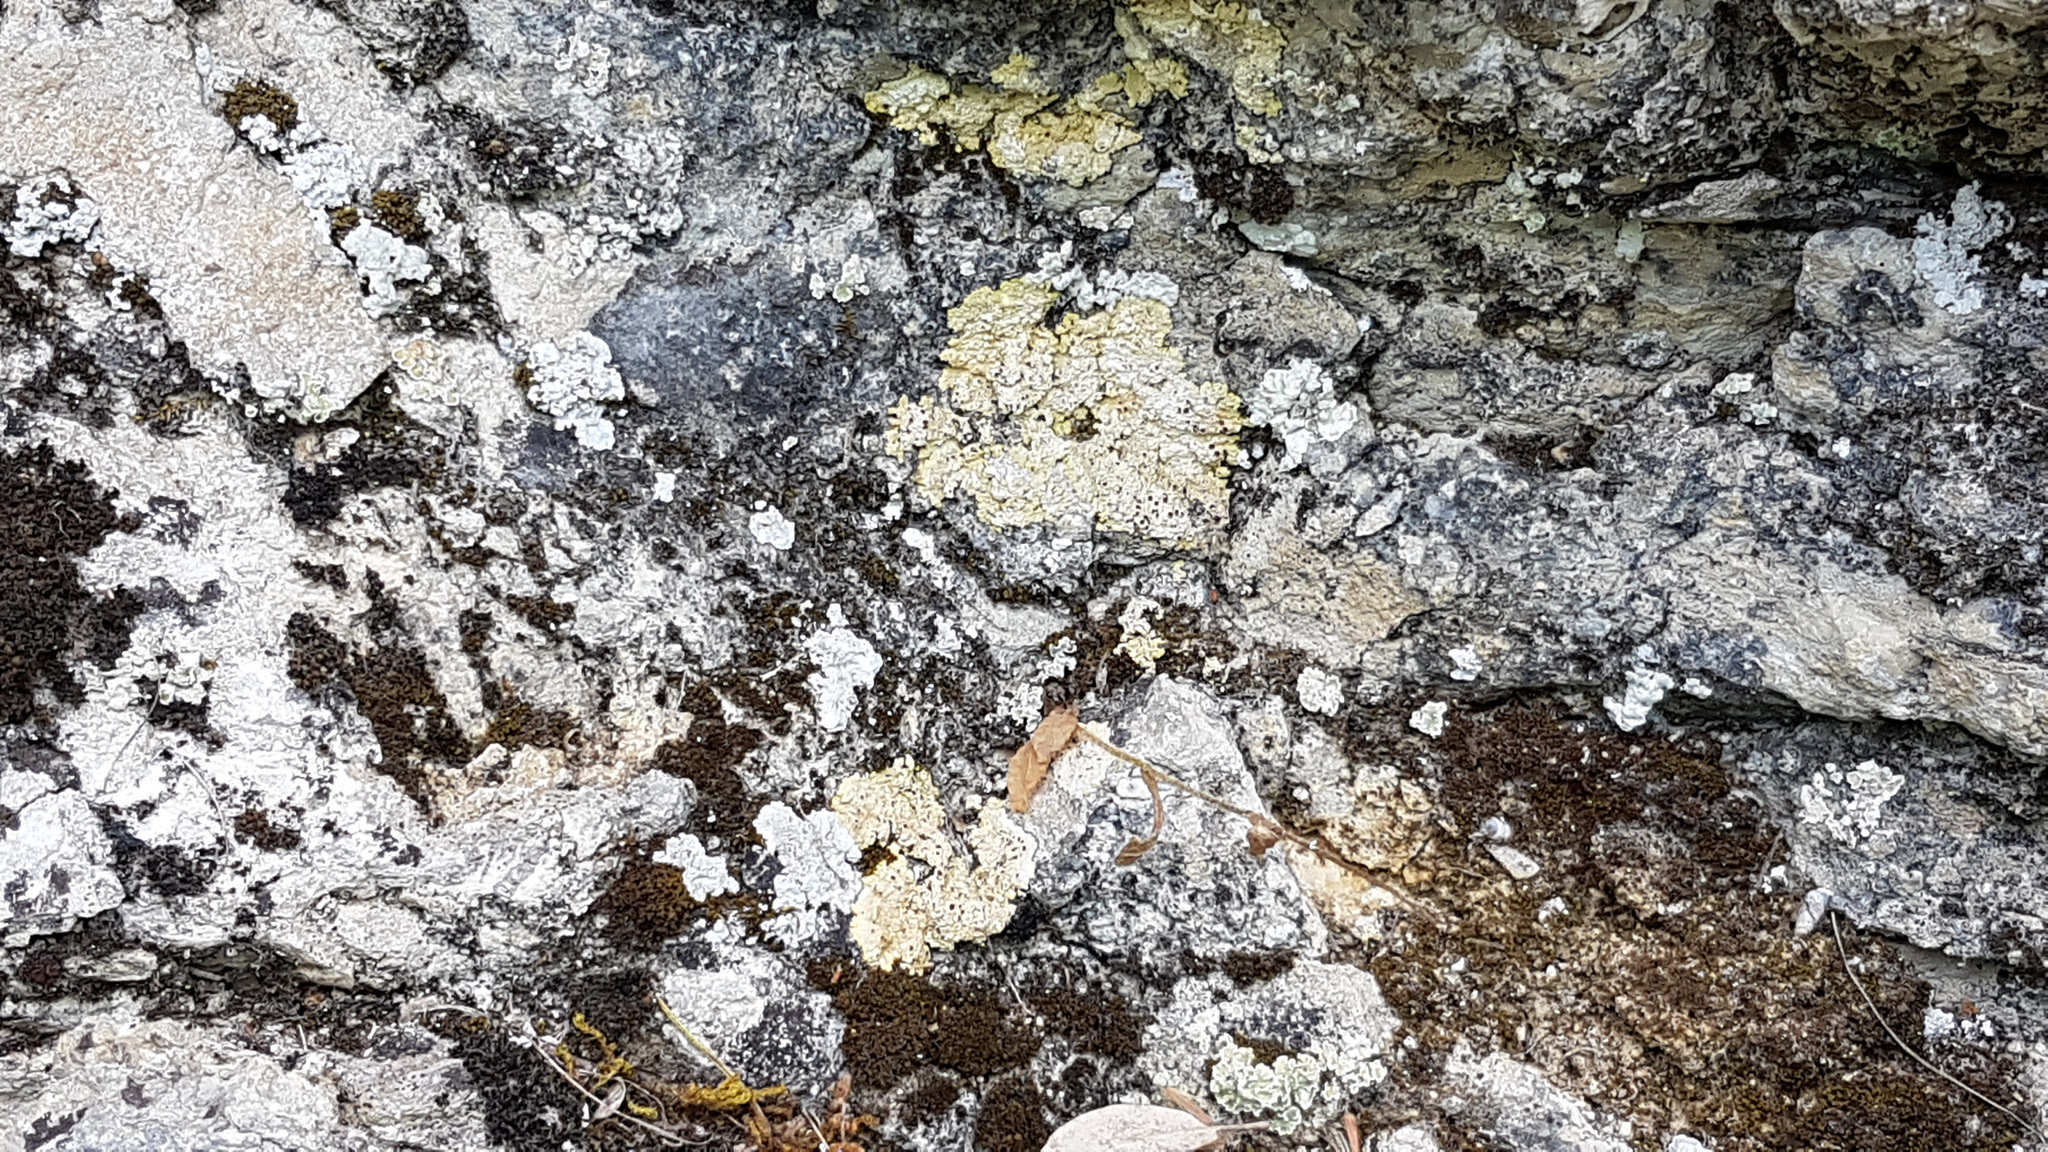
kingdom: Fungi
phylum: Ascomycota
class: Lecanoromycetes
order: Teloschistales
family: Teloschistaceae
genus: Gyalolechia
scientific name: Gyalolechia fulgens
